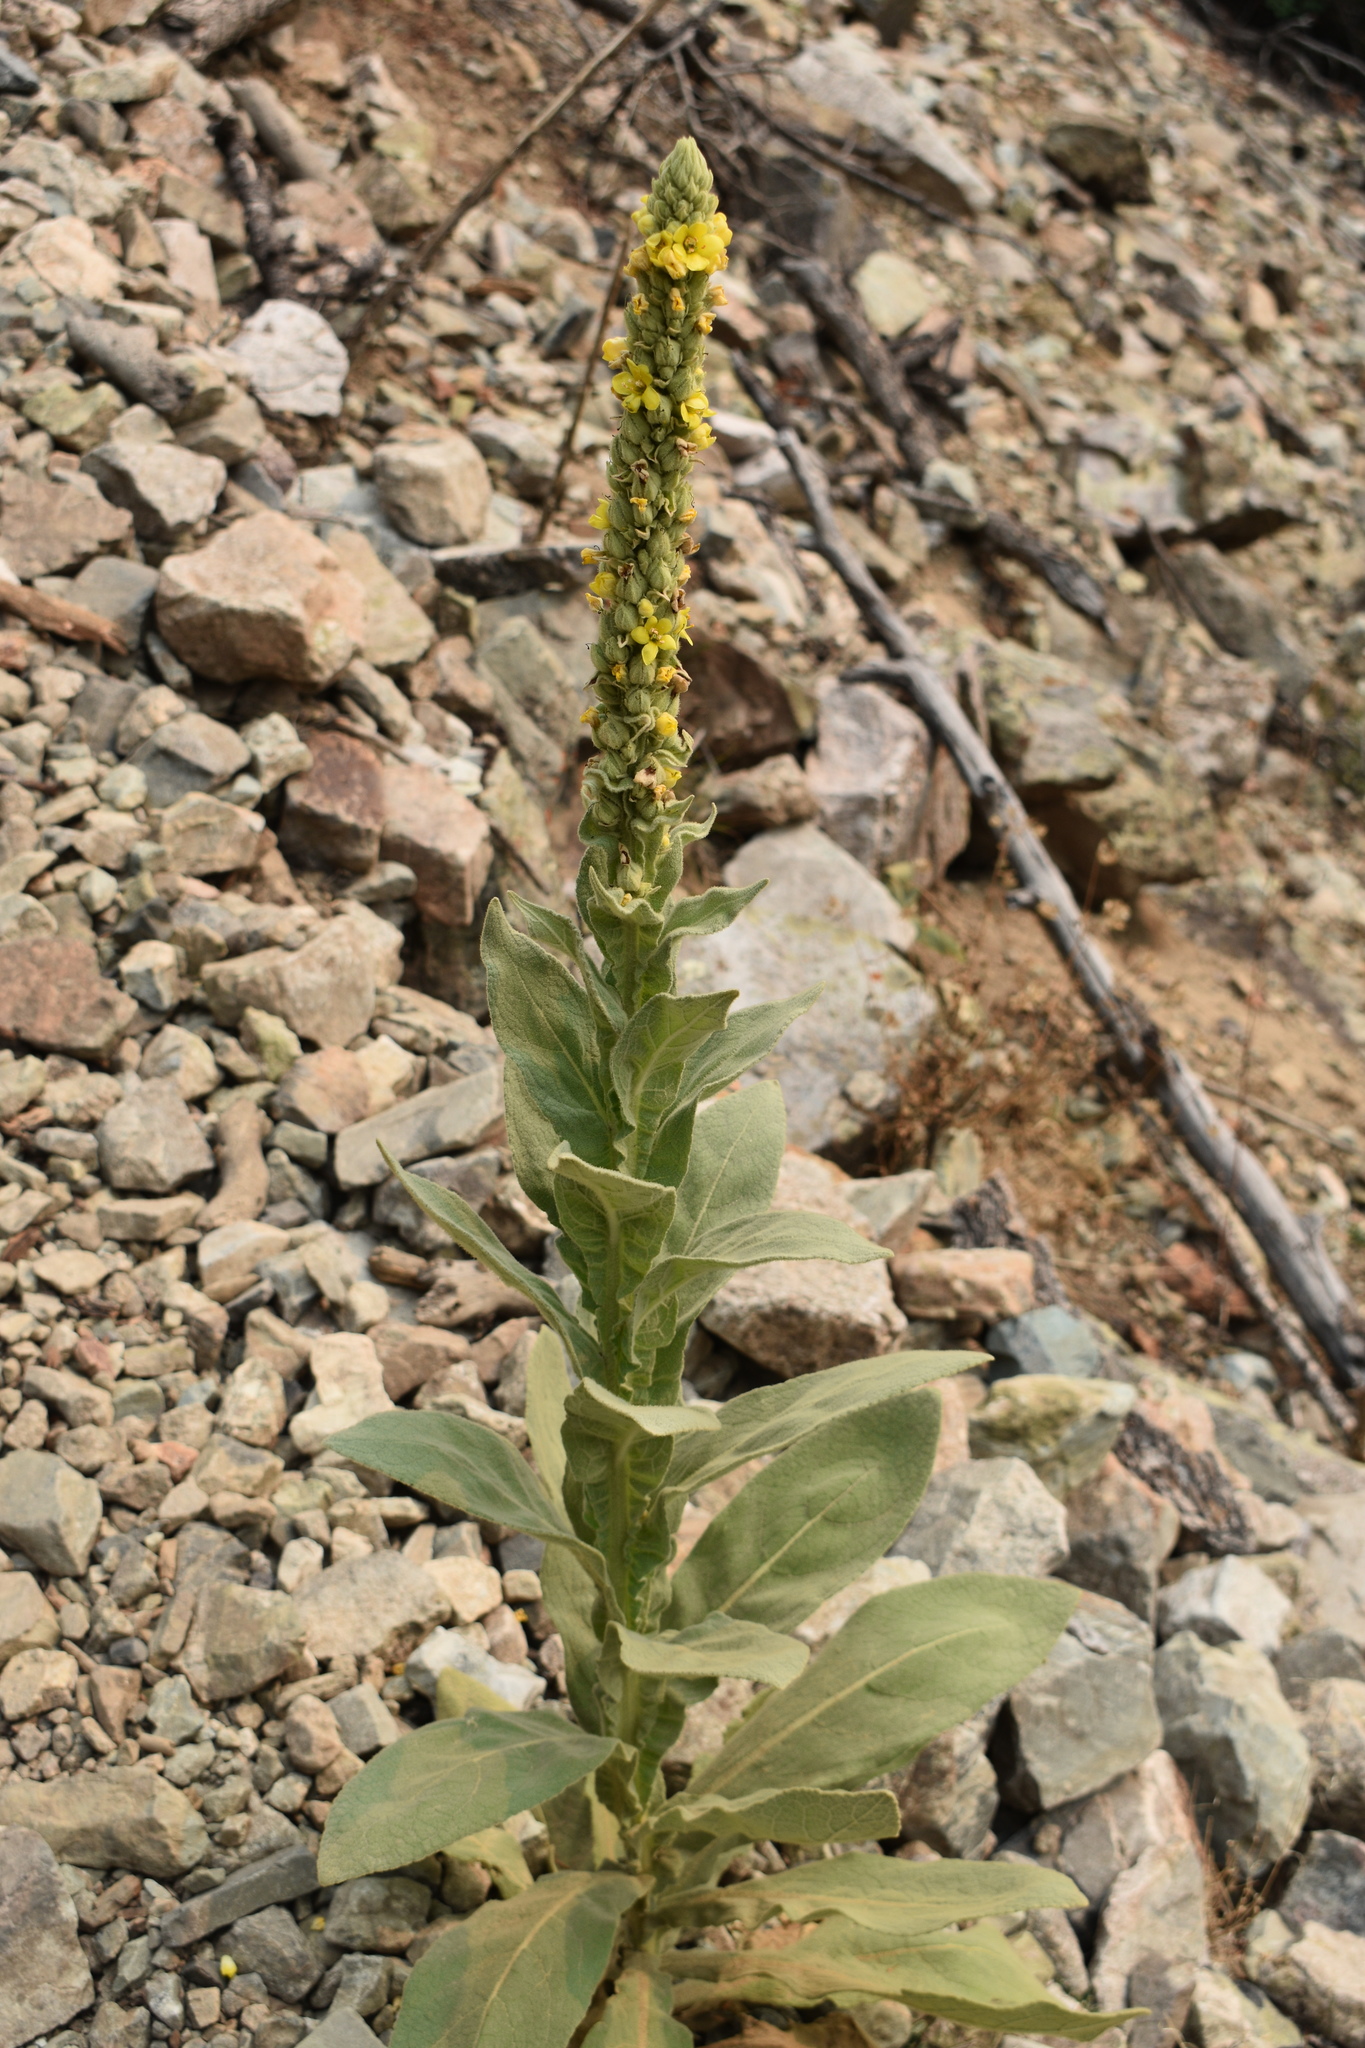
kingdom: Plantae
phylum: Tracheophyta
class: Magnoliopsida
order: Lamiales
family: Scrophulariaceae
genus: Verbascum
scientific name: Verbascum thapsus
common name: Common mullein
